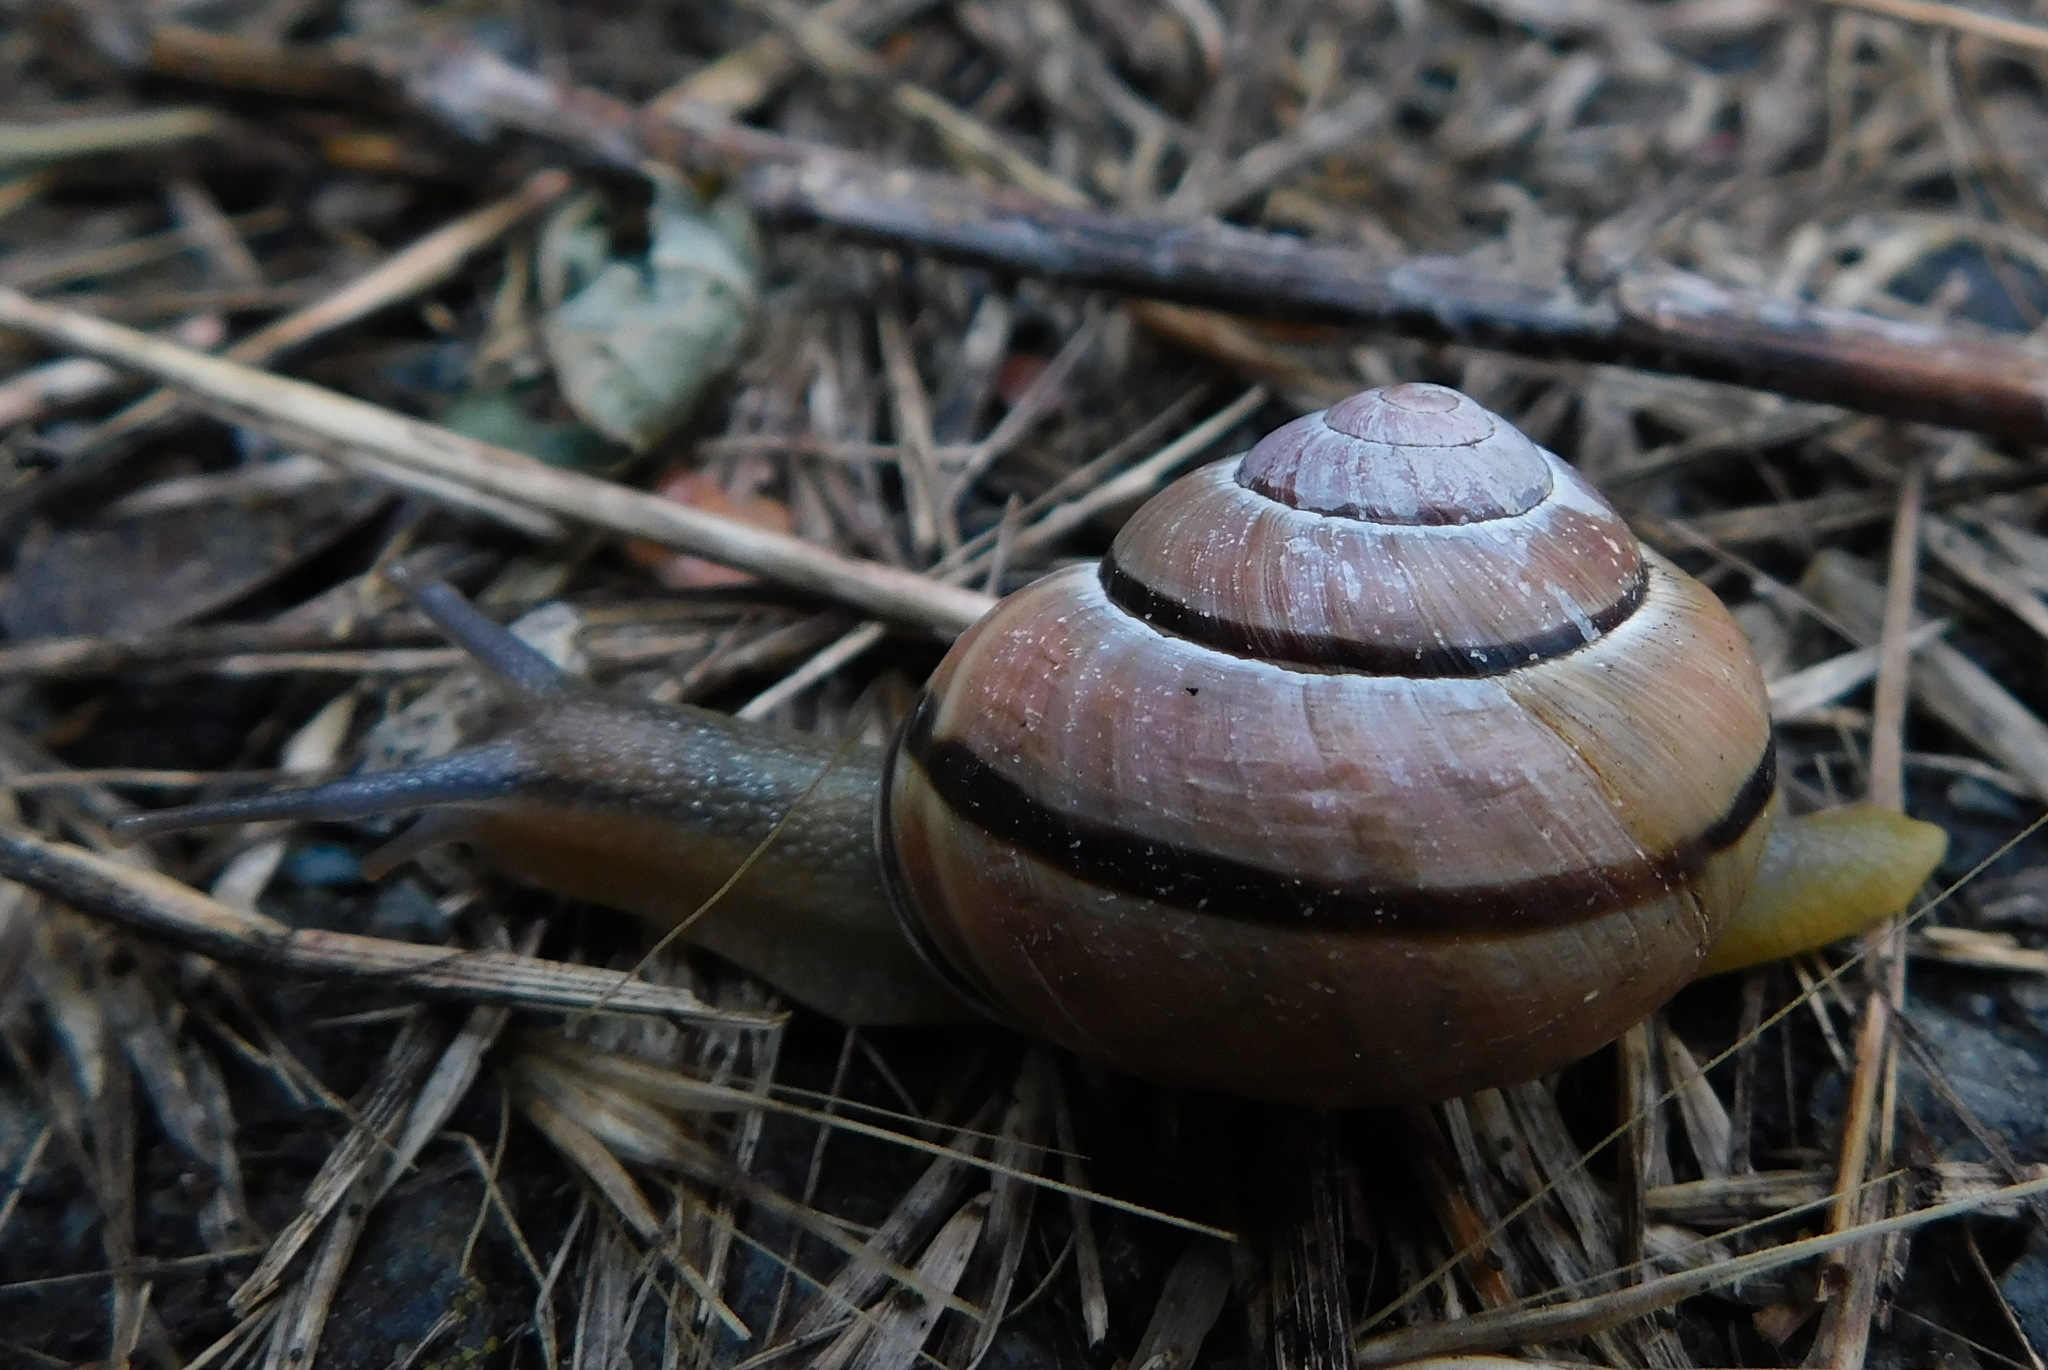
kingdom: Animalia
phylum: Mollusca
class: Gastropoda
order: Stylommatophora
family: Helicidae
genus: Cepaea
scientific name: Cepaea nemoralis
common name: Grovesnail
